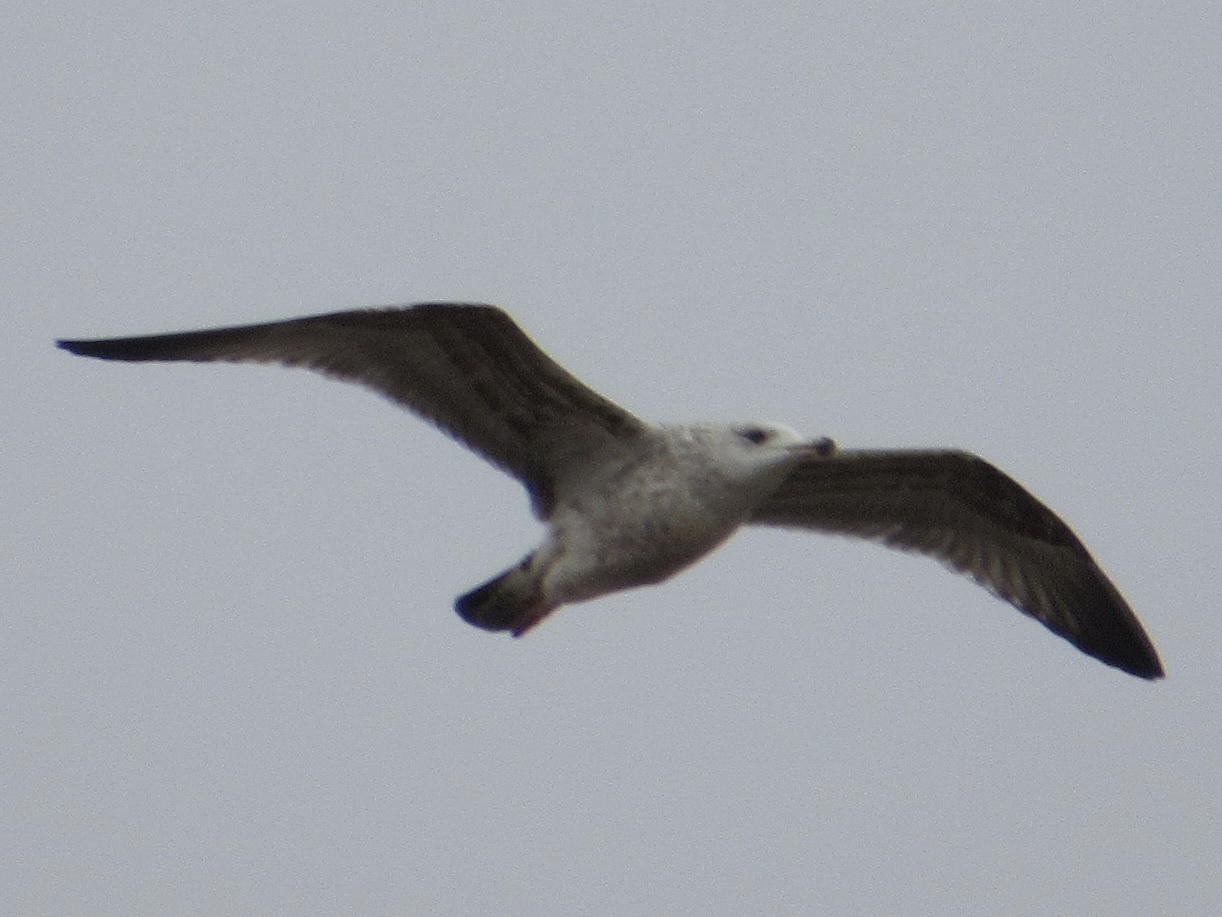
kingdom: Animalia
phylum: Chordata
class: Aves
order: Charadriiformes
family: Laridae
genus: Larus
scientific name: Larus argentatus
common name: Herring gull
